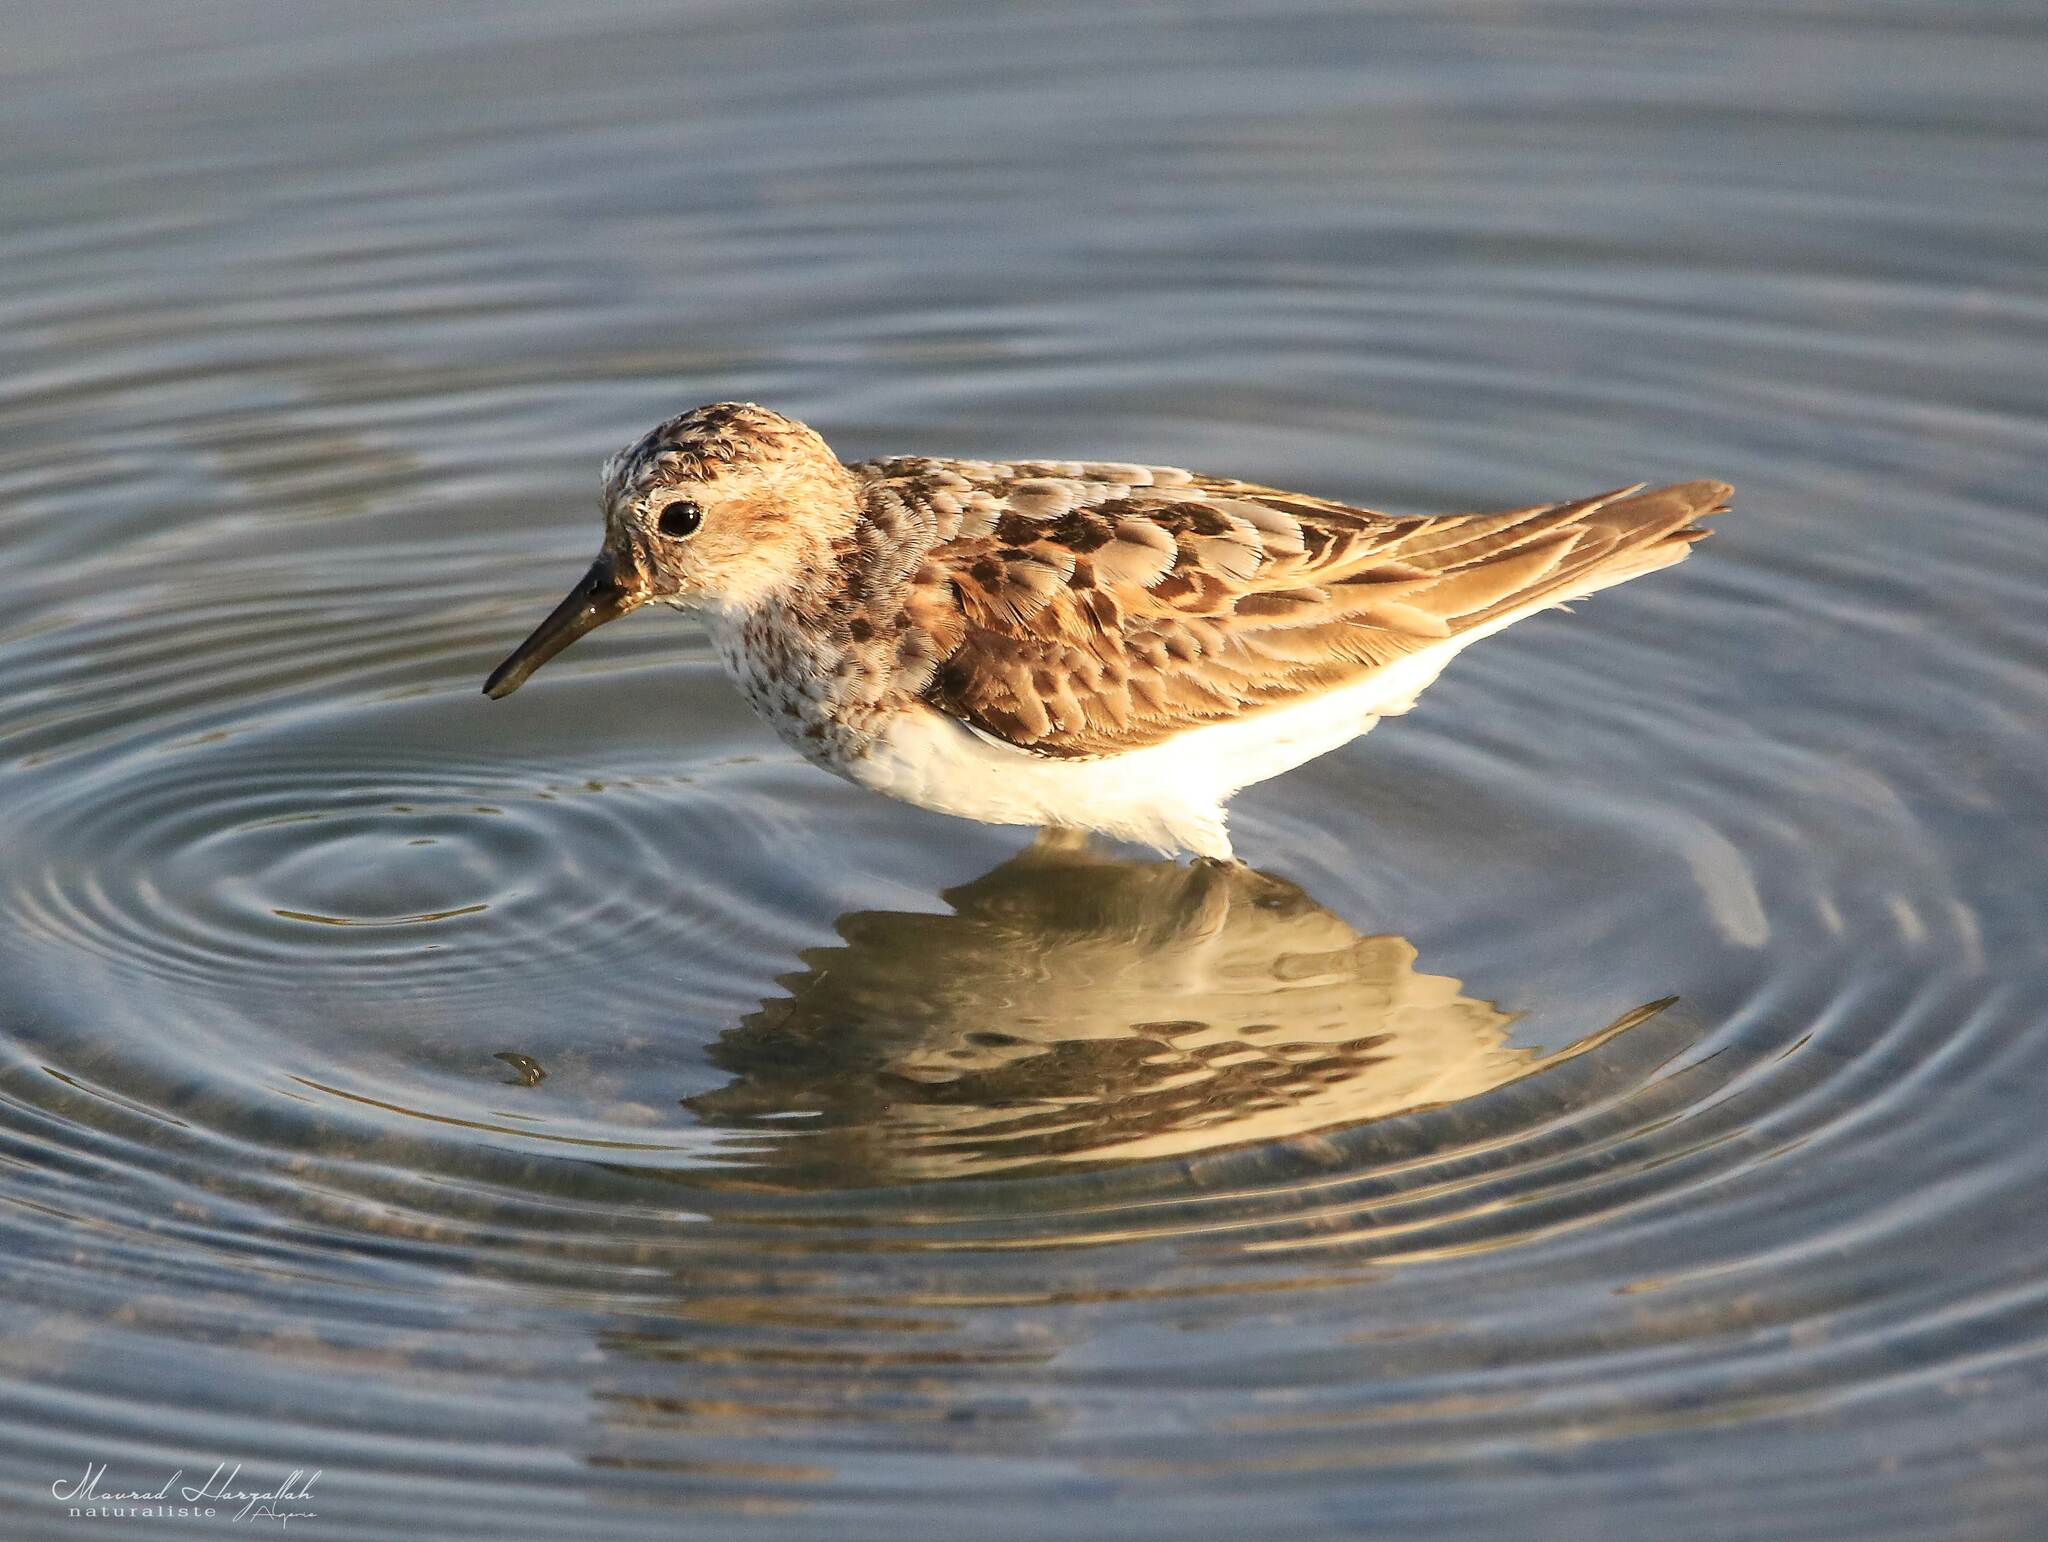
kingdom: Animalia
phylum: Chordata
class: Aves
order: Charadriiformes
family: Scolopacidae
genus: Calidris
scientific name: Calidris minuta
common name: Little stint
